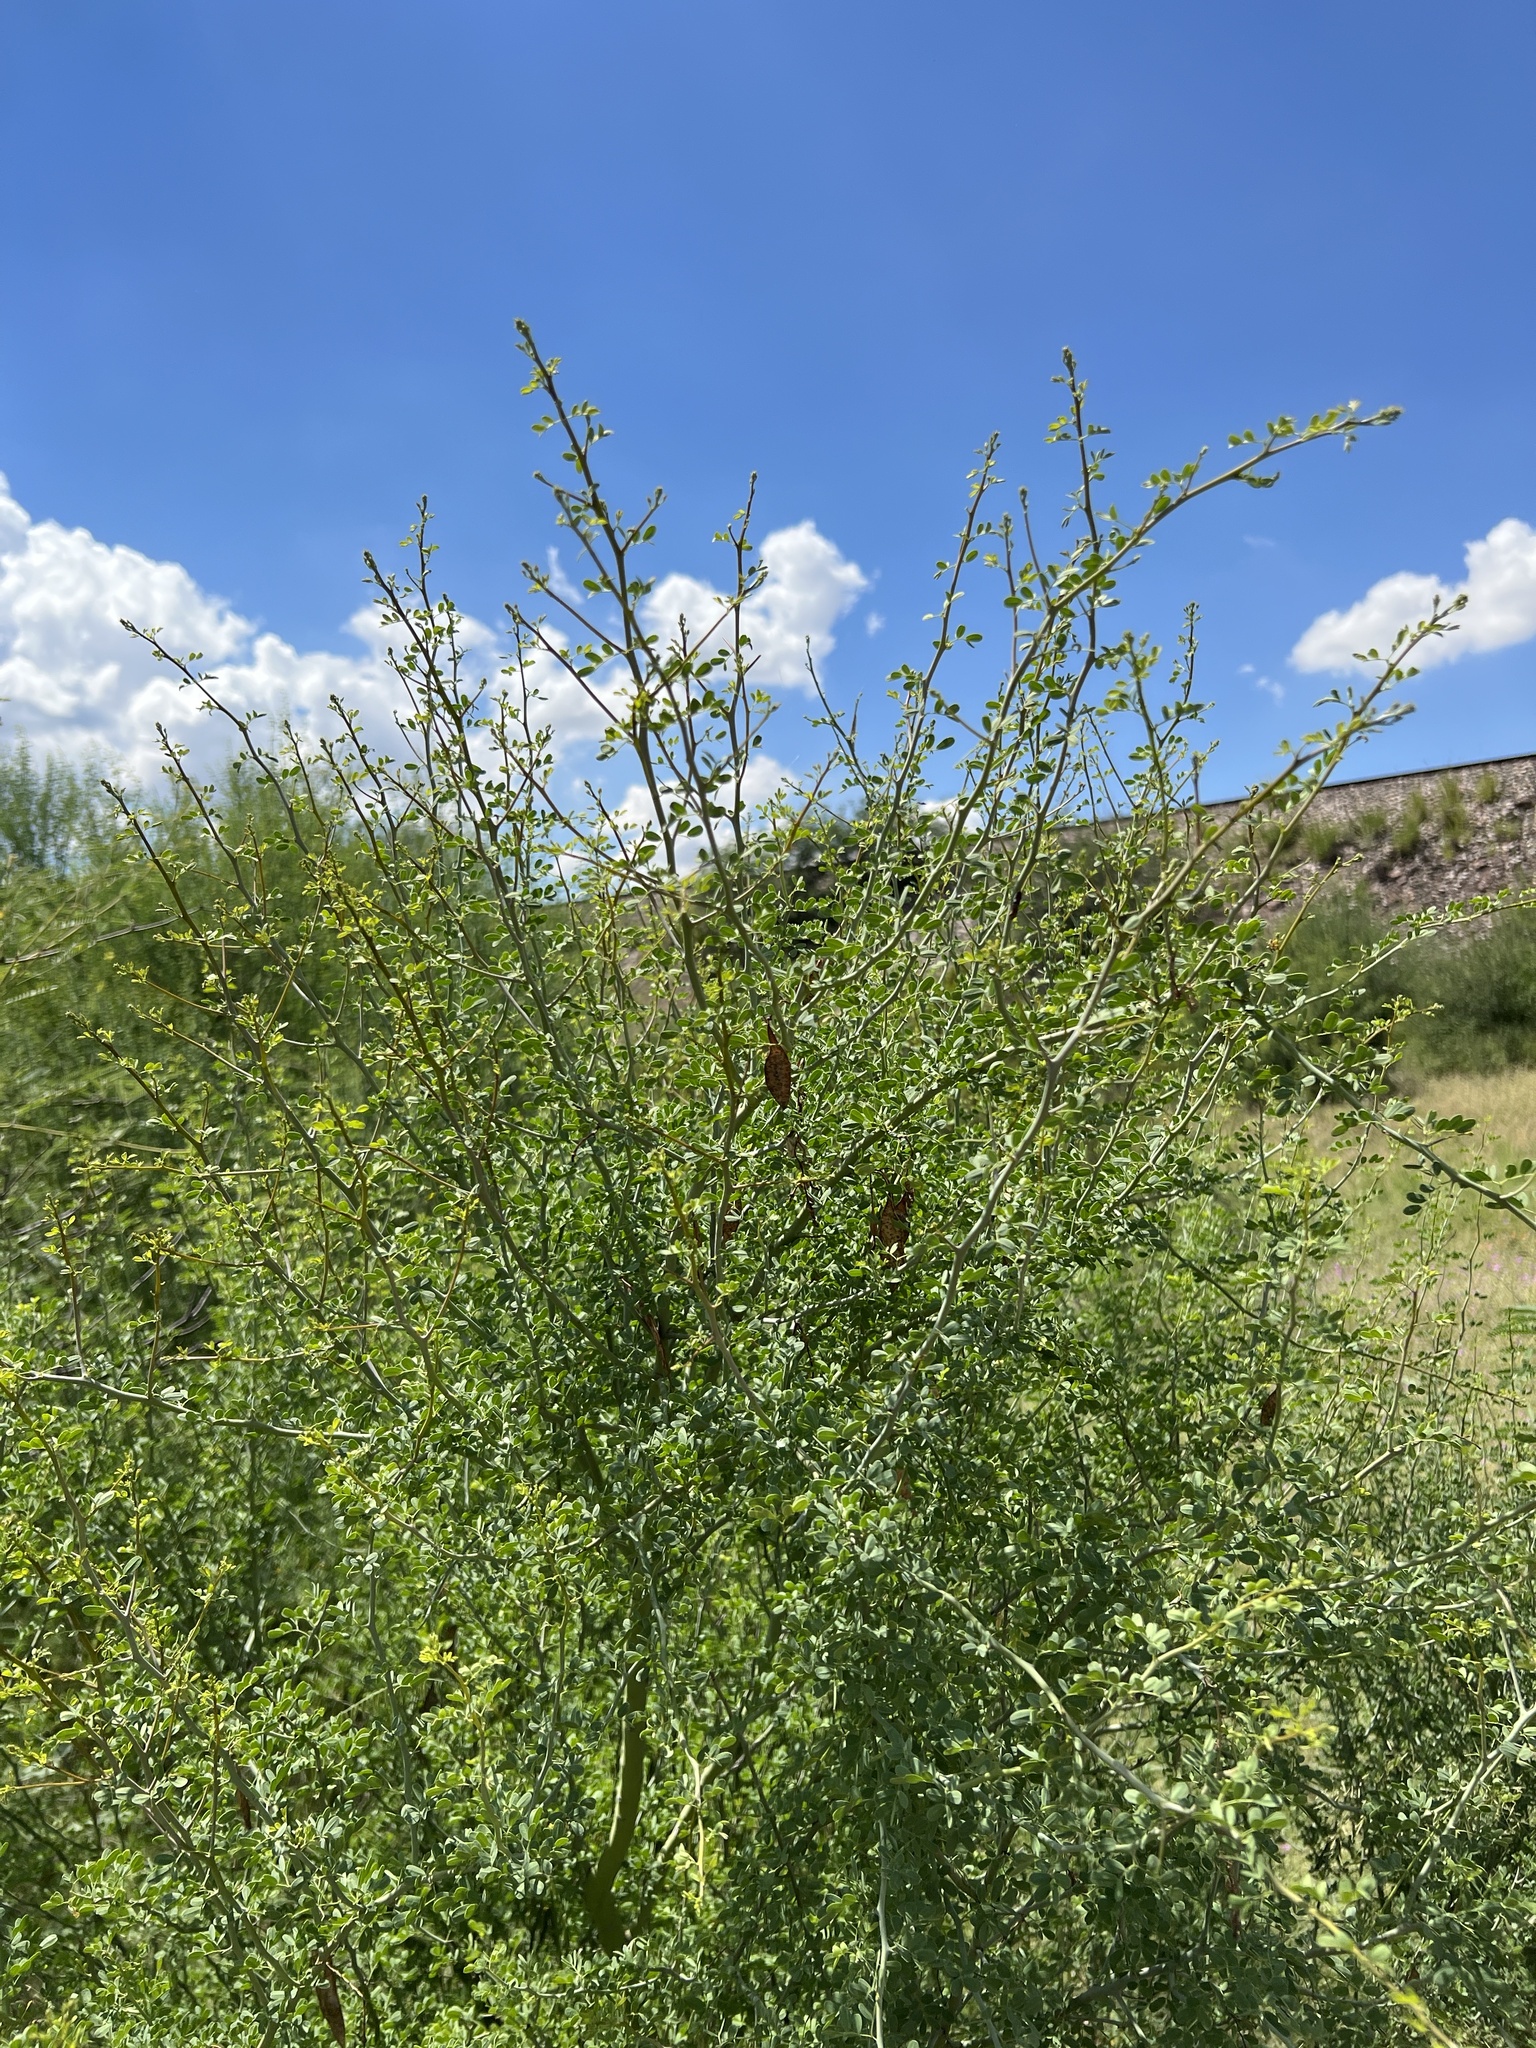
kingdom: Plantae
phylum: Tracheophyta
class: Magnoliopsida
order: Fabales
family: Fabaceae
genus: Parkinsonia
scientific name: Parkinsonia florida
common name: Blue paloverde
